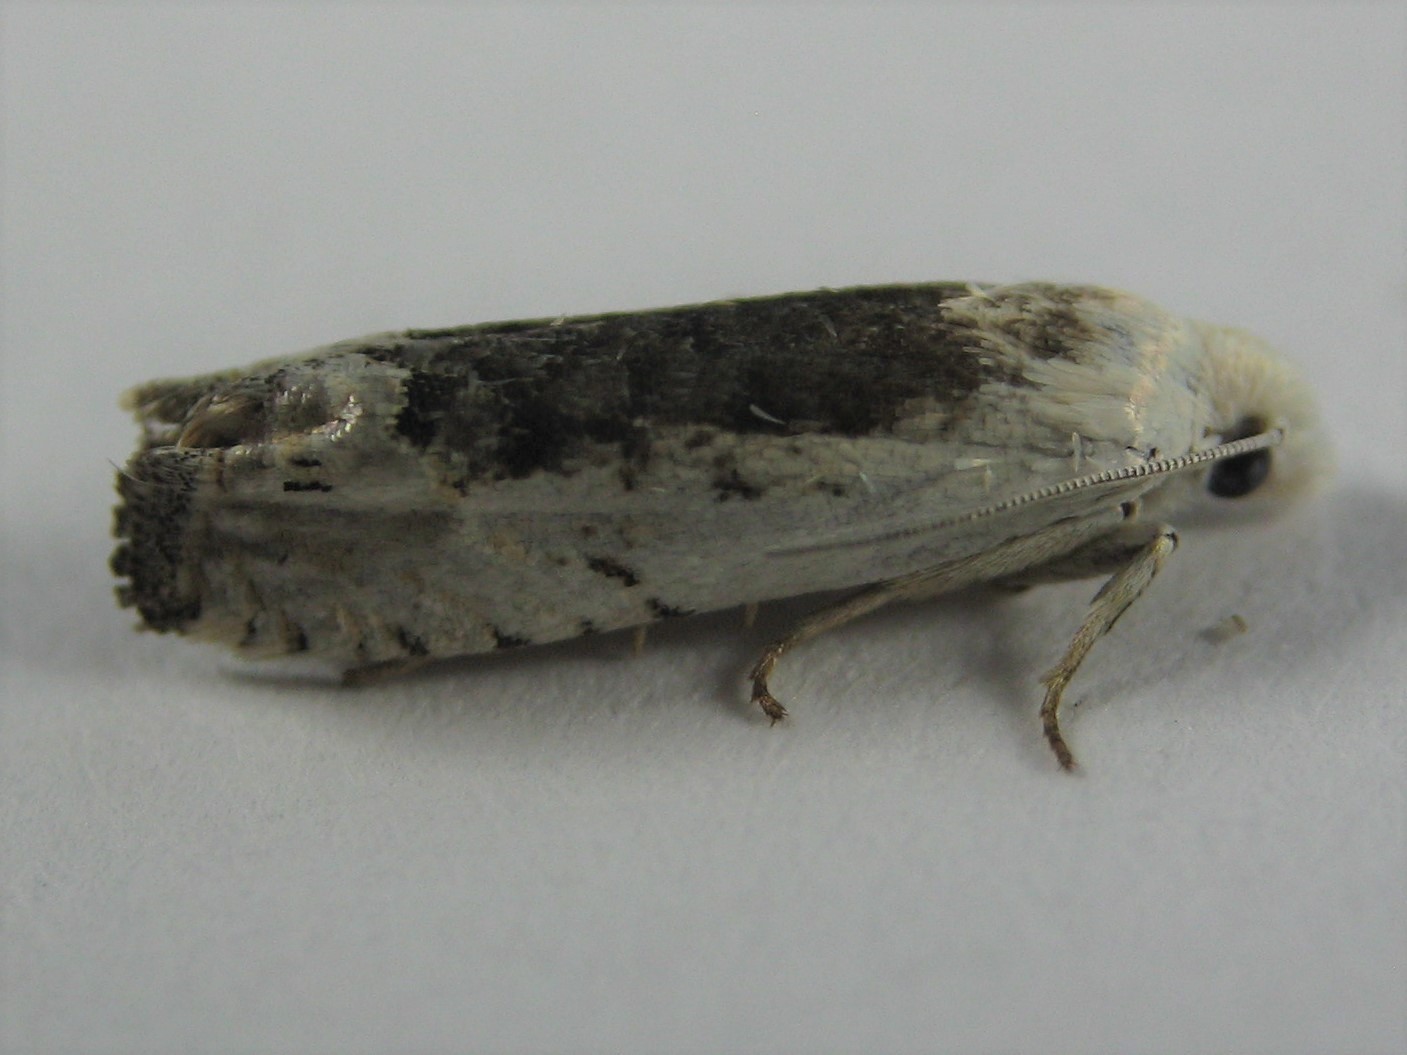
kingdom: Animalia
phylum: Arthropoda
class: Insecta
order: Lepidoptera
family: Tortricidae
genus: Pelochrista
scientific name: Pelochrista heathiana
